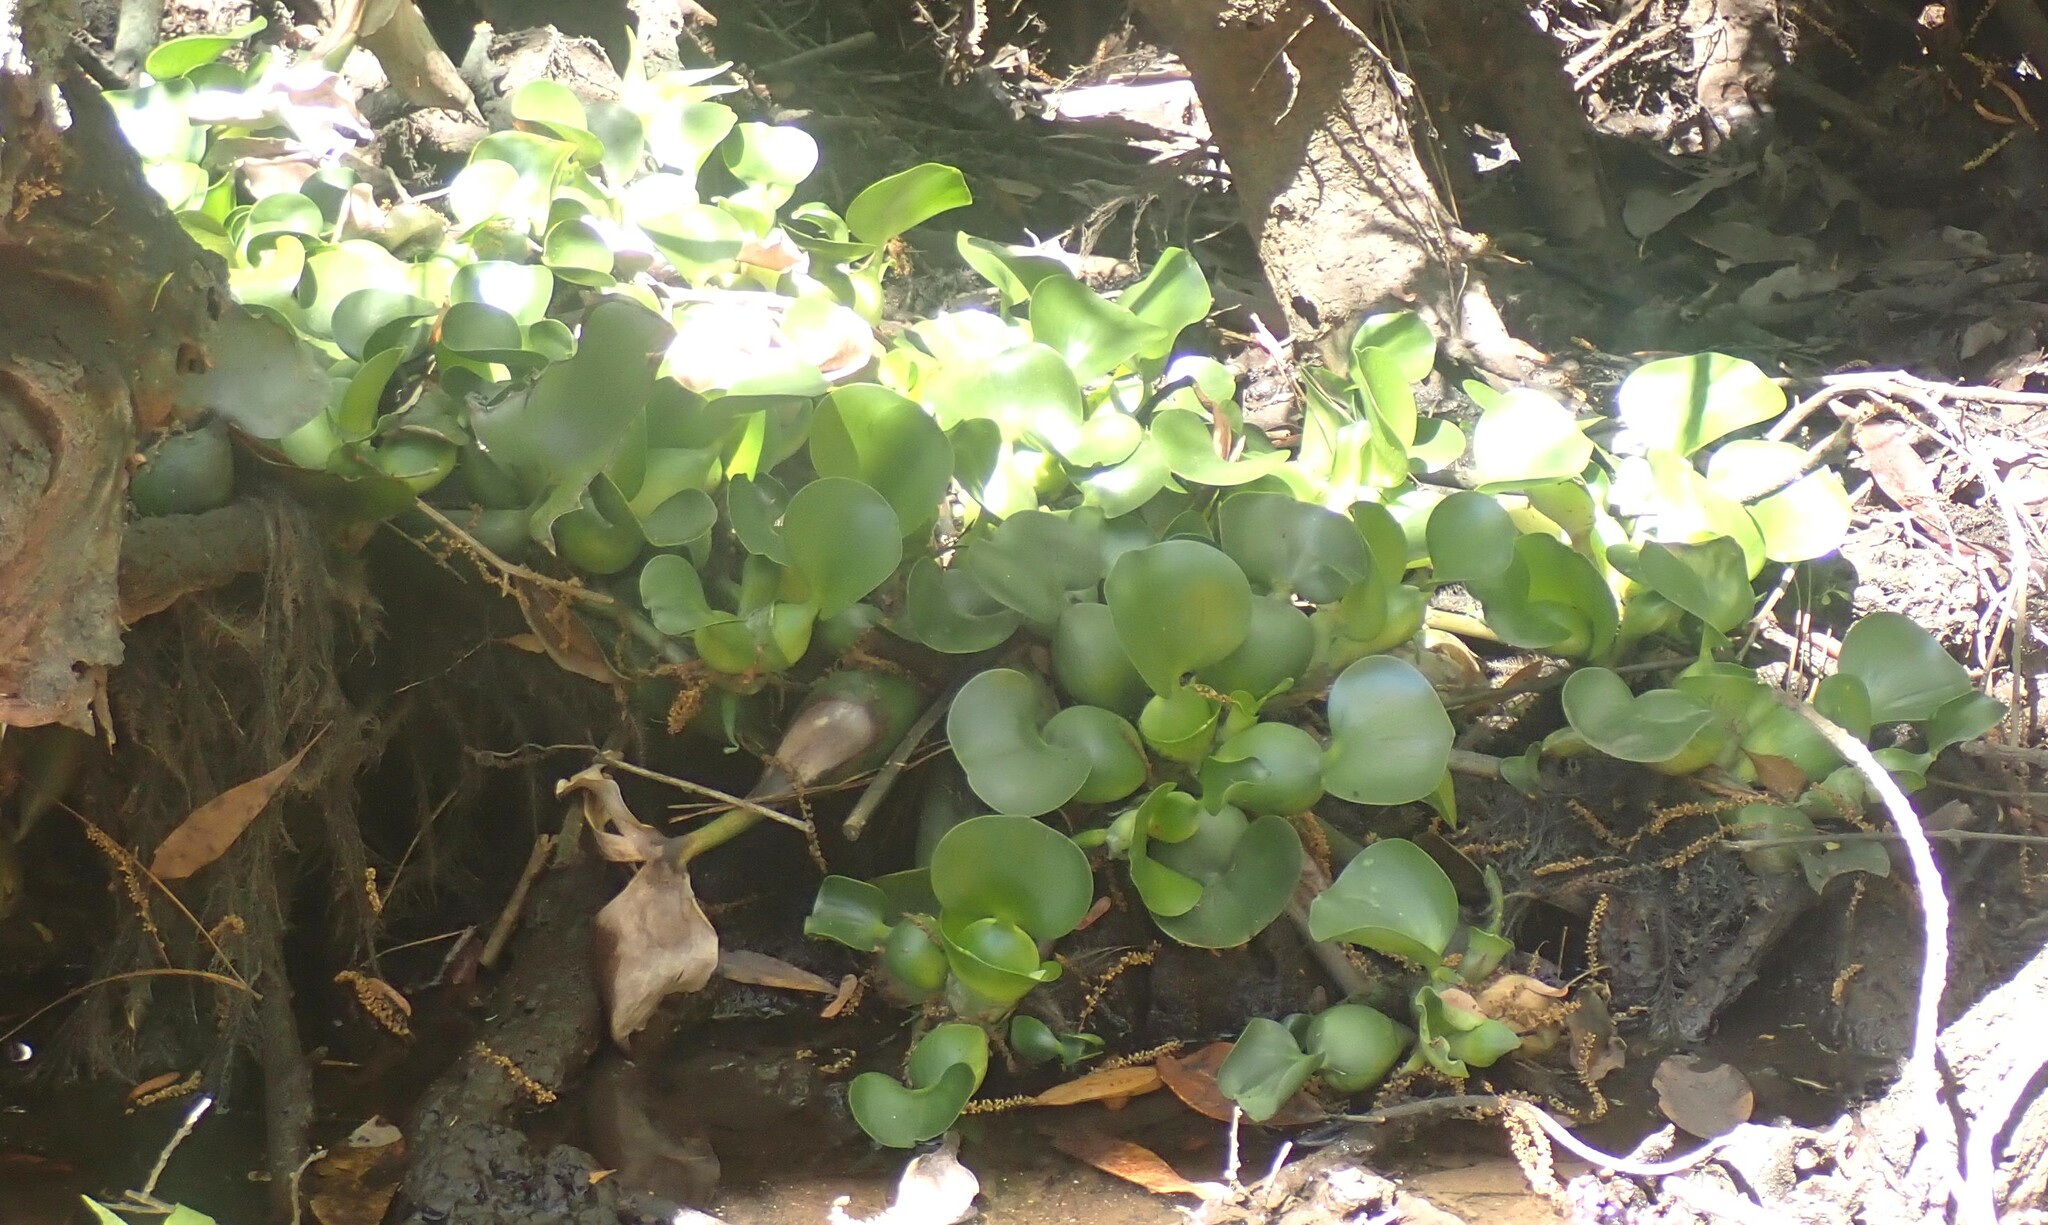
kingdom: Plantae
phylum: Tracheophyta
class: Liliopsida
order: Commelinales
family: Pontederiaceae
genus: Pontederia
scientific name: Pontederia crassipes
